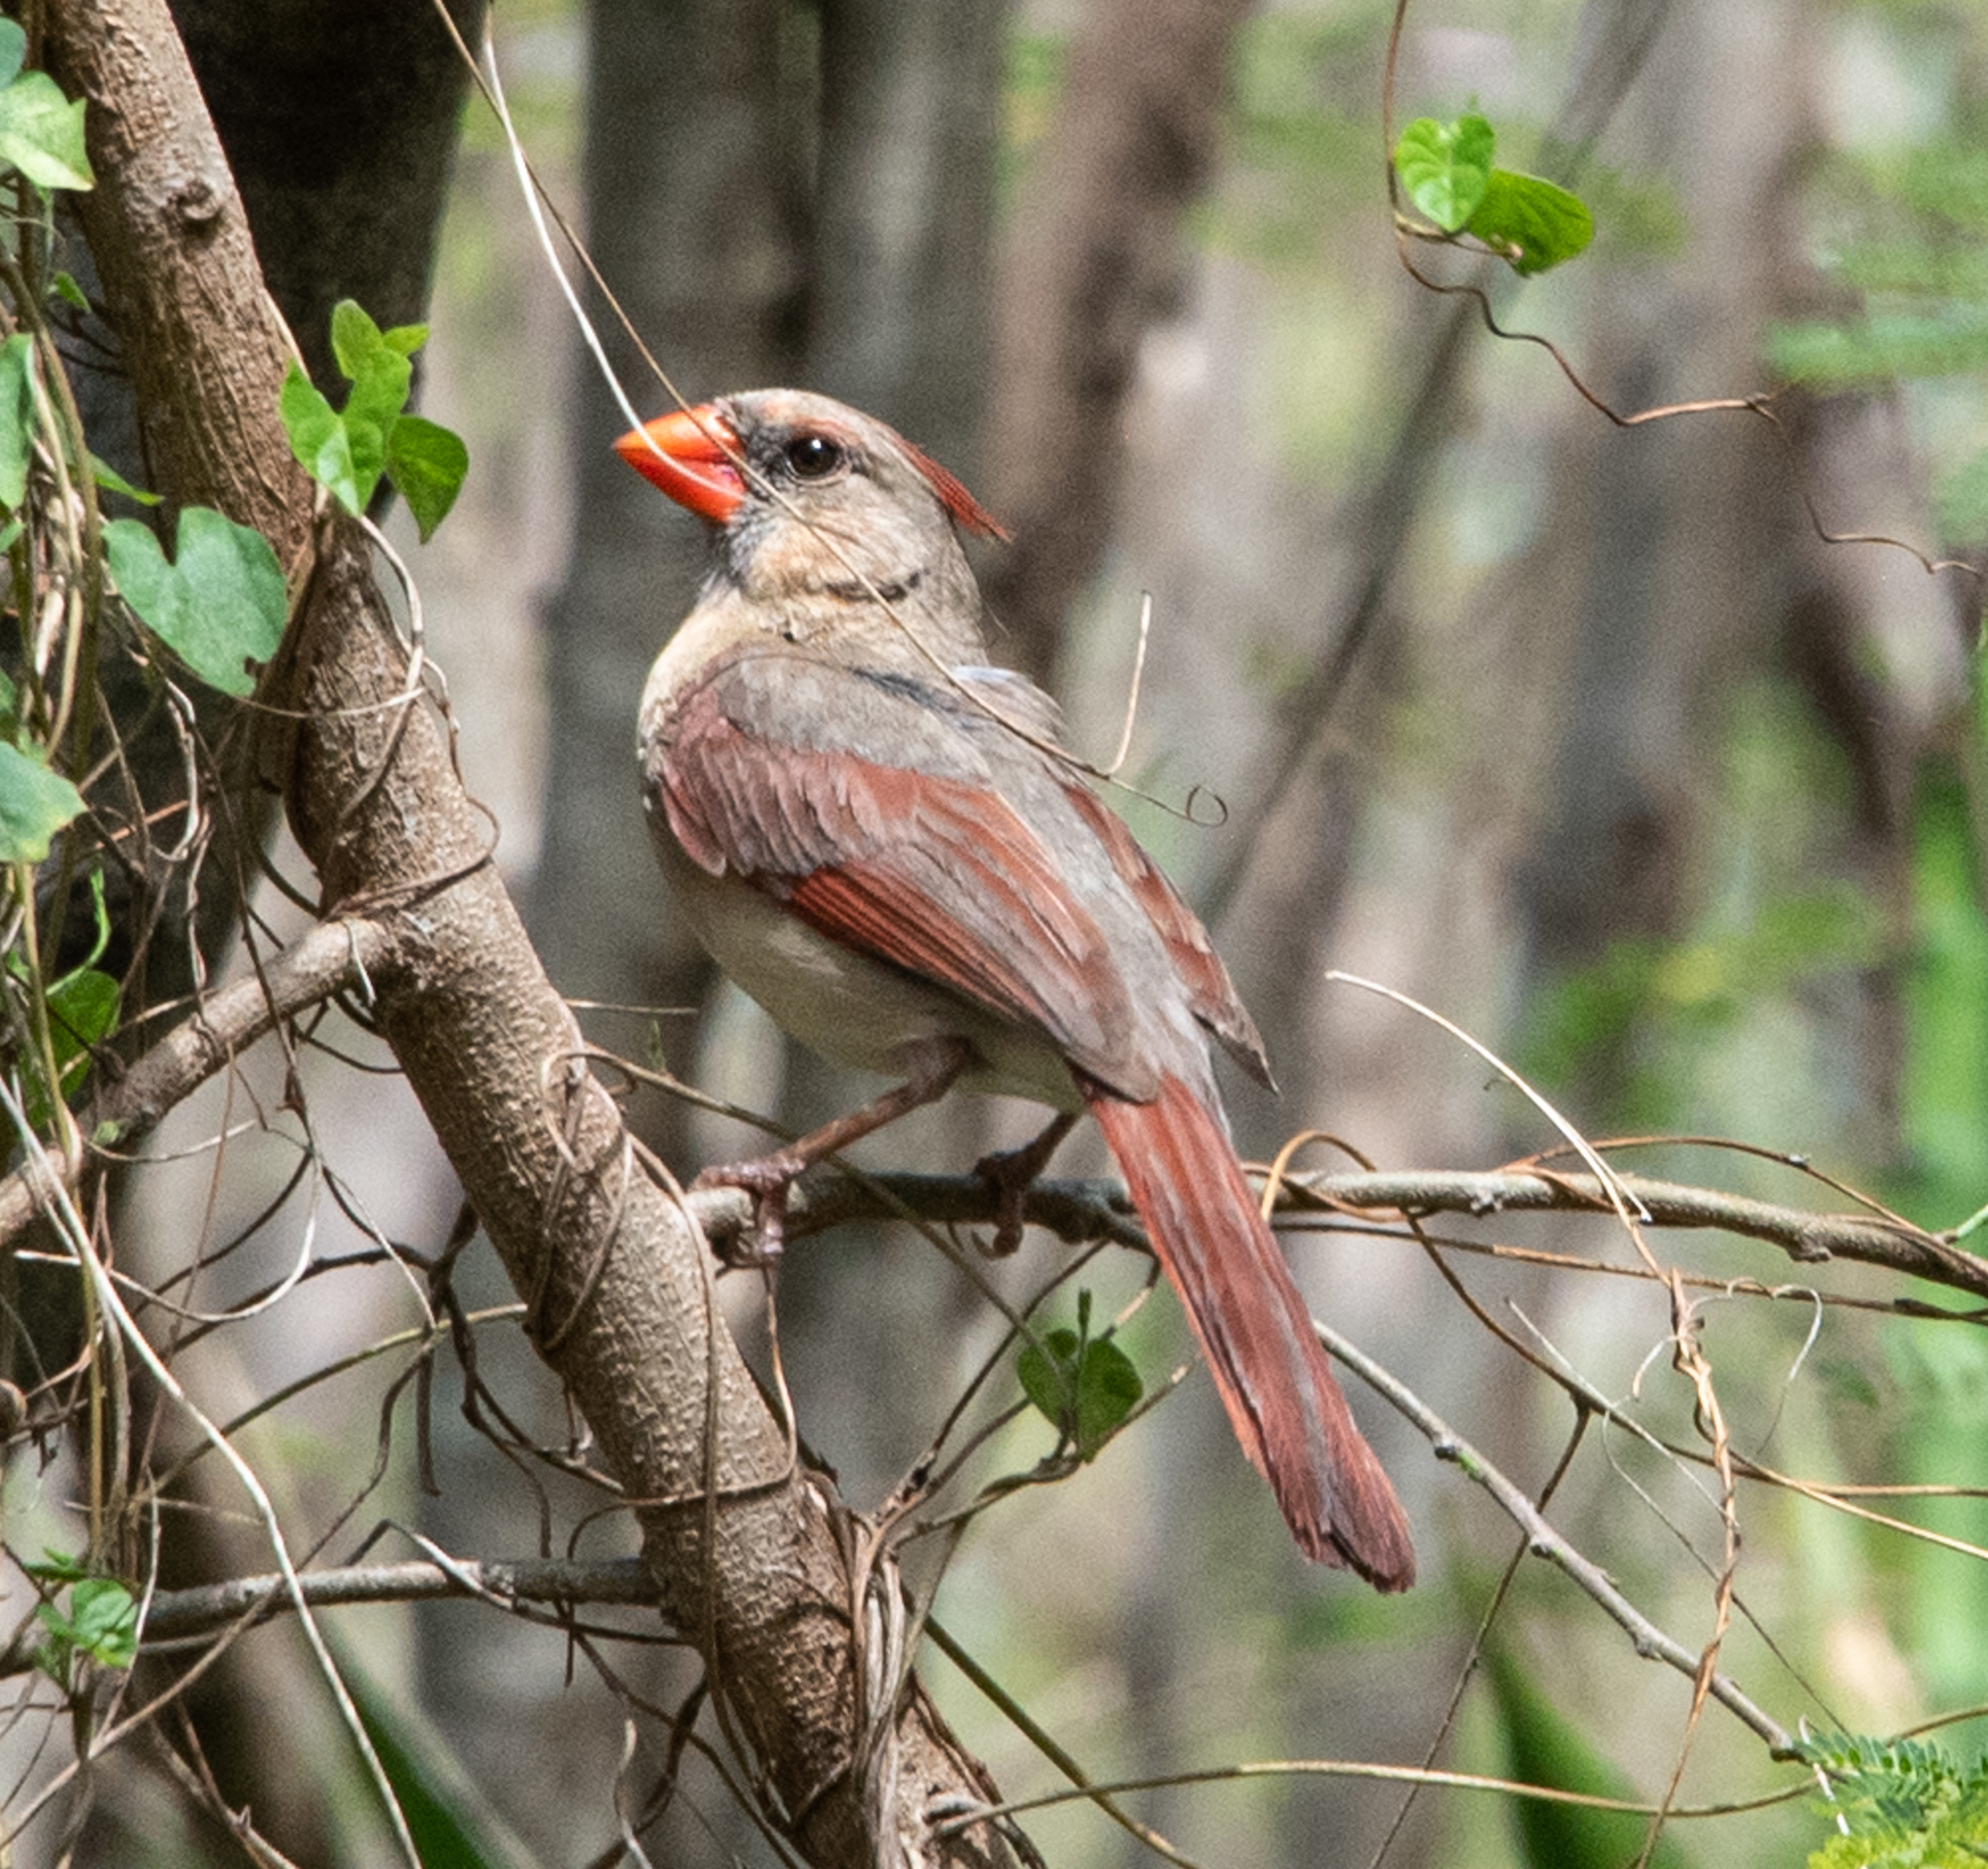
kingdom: Animalia
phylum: Chordata
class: Aves
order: Passeriformes
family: Cardinalidae
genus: Cardinalis
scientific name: Cardinalis cardinalis
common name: Northern cardinal
